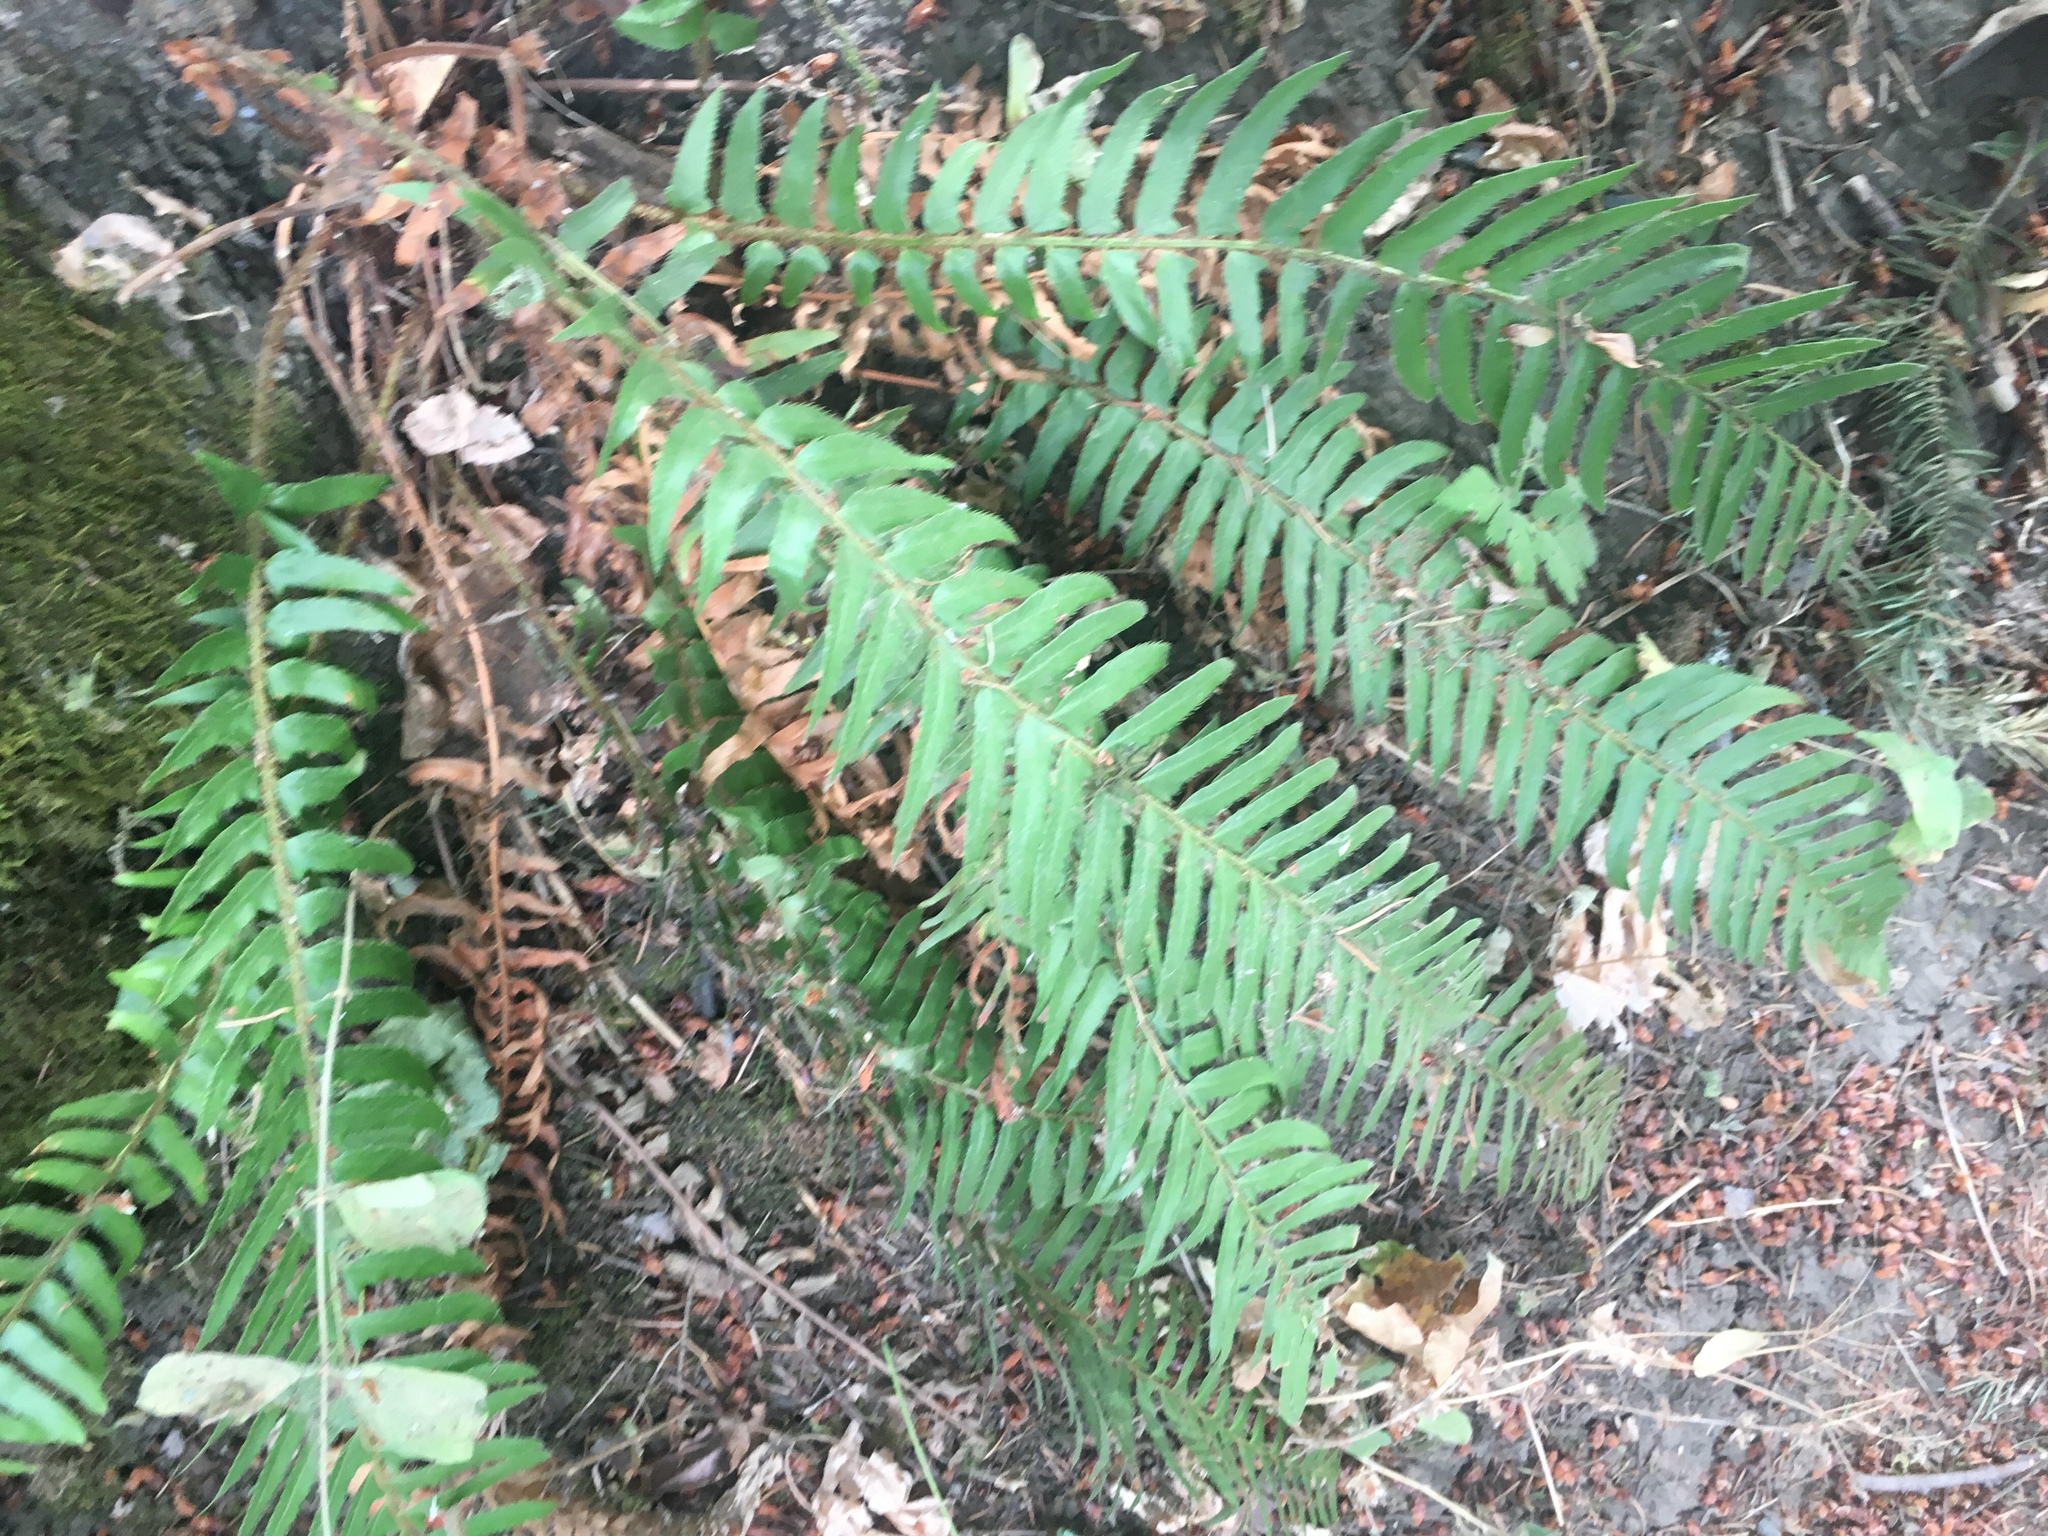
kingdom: Plantae
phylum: Tracheophyta
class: Polypodiopsida
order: Polypodiales
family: Dryopteridaceae
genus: Polystichum
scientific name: Polystichum munitum
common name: Western sword-fern
